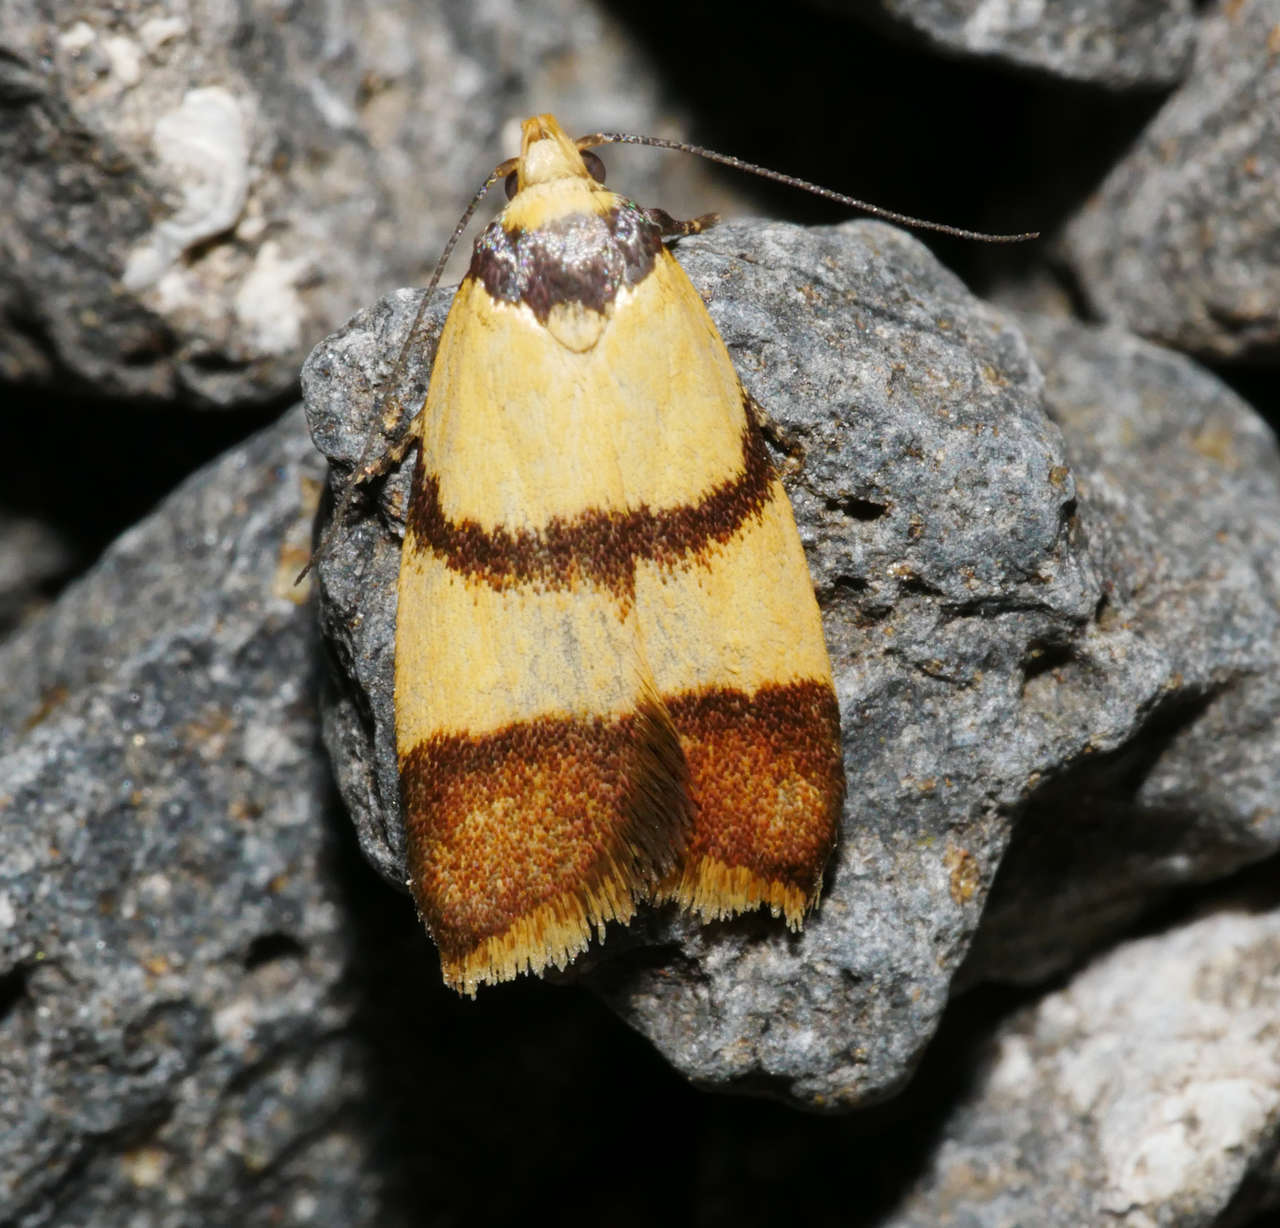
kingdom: Animalia
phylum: Arthropoda
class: Insecta
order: Lepidoptera
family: Oecophoridae
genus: Heteroteucha
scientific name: Heteroteucha translatella
